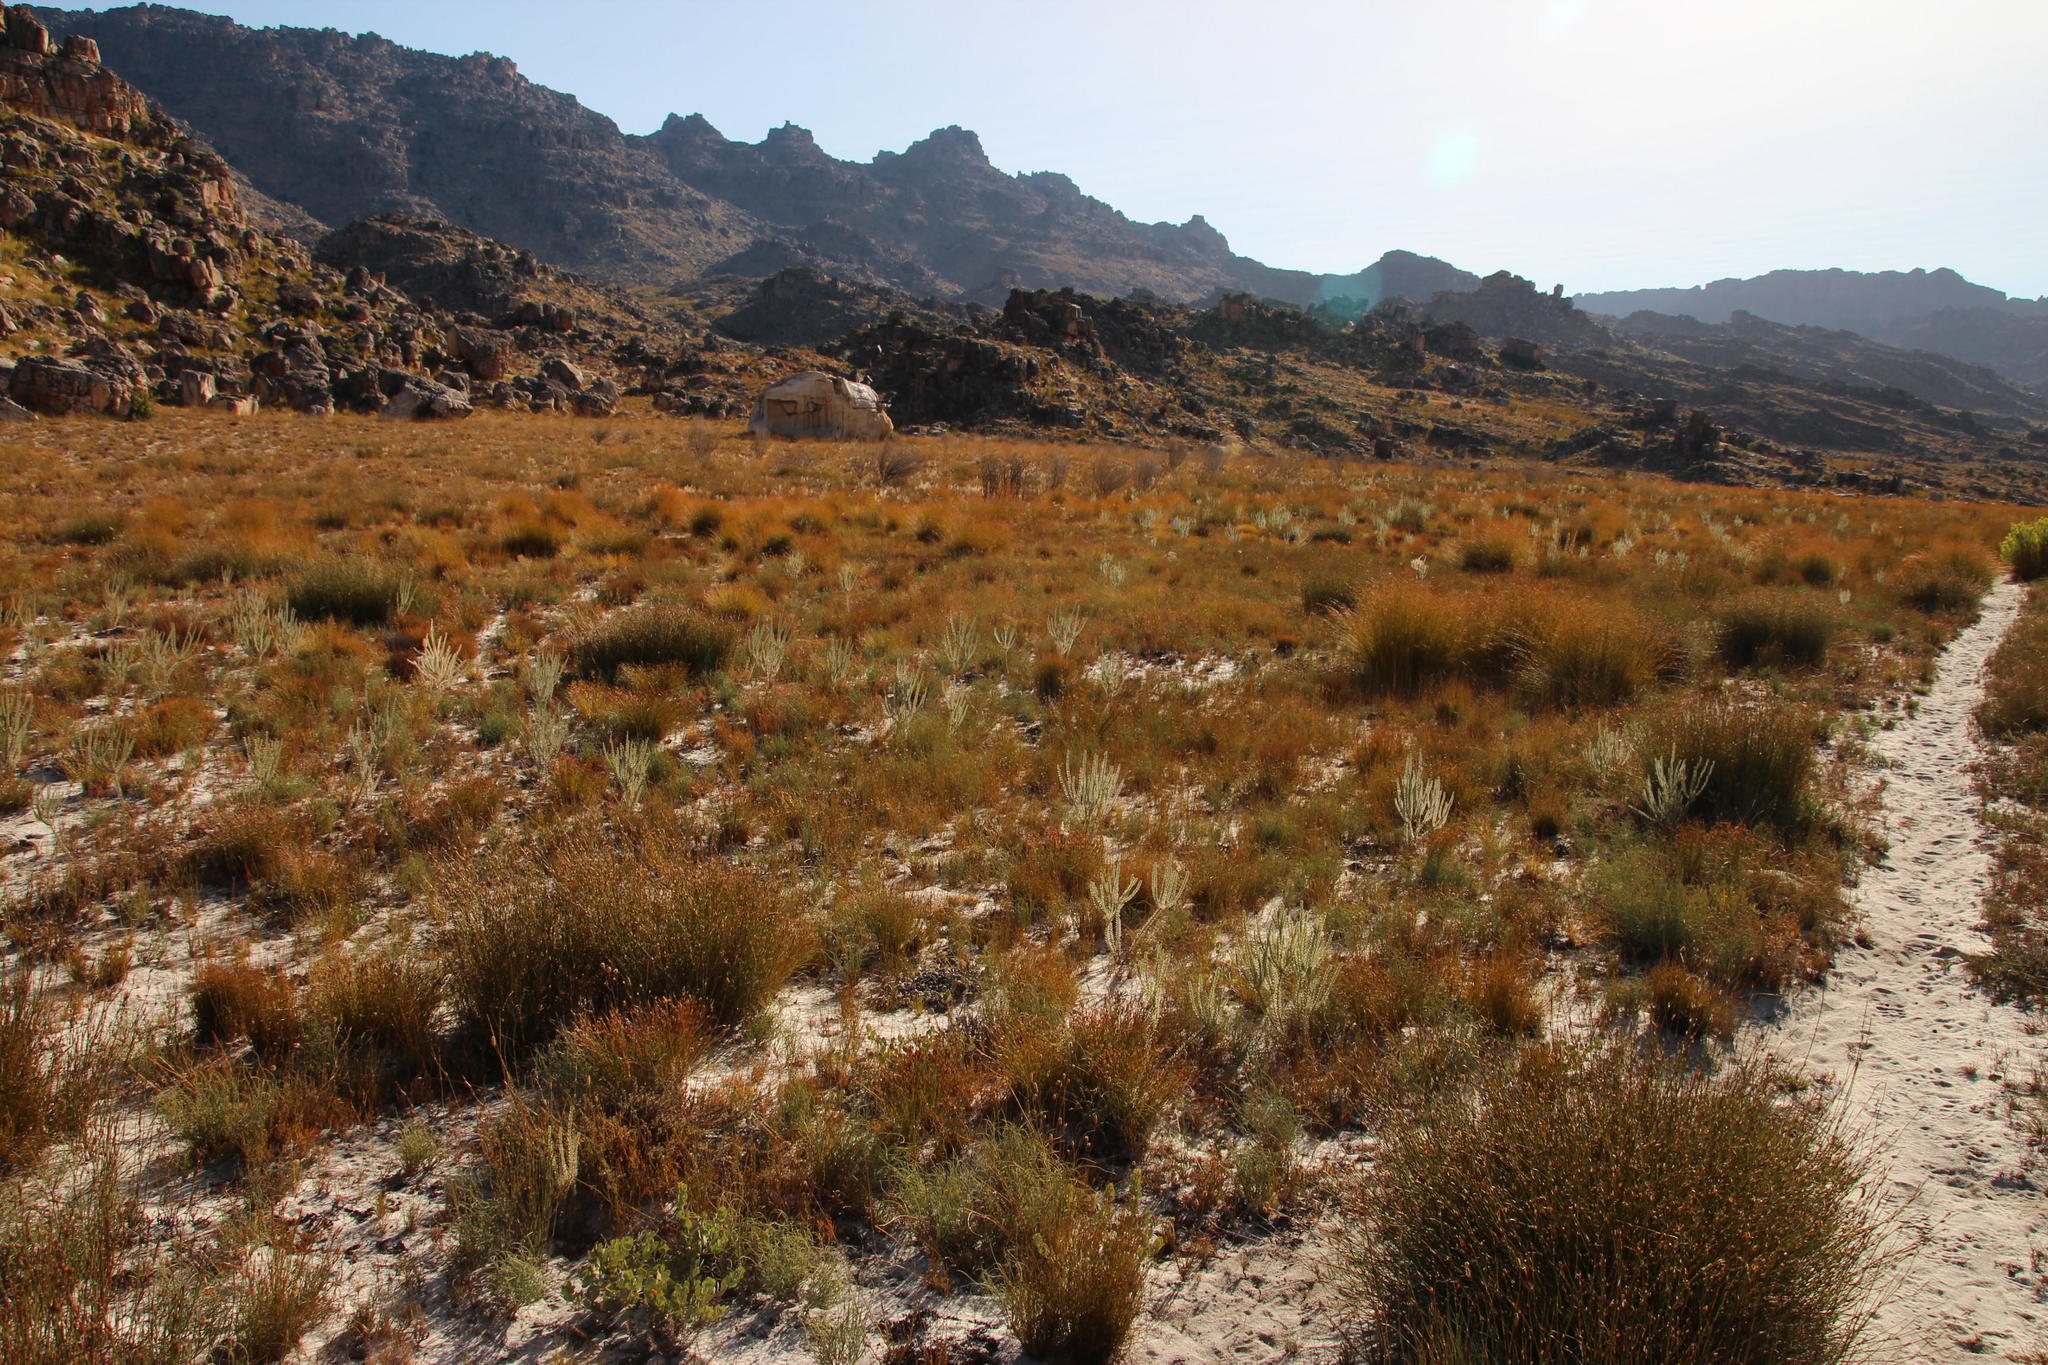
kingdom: Plantae
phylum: Tracheophyta
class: Magnoliopsida
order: Proteales
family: Proteaceae
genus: Leucadendron
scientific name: Leucadendron dubium
